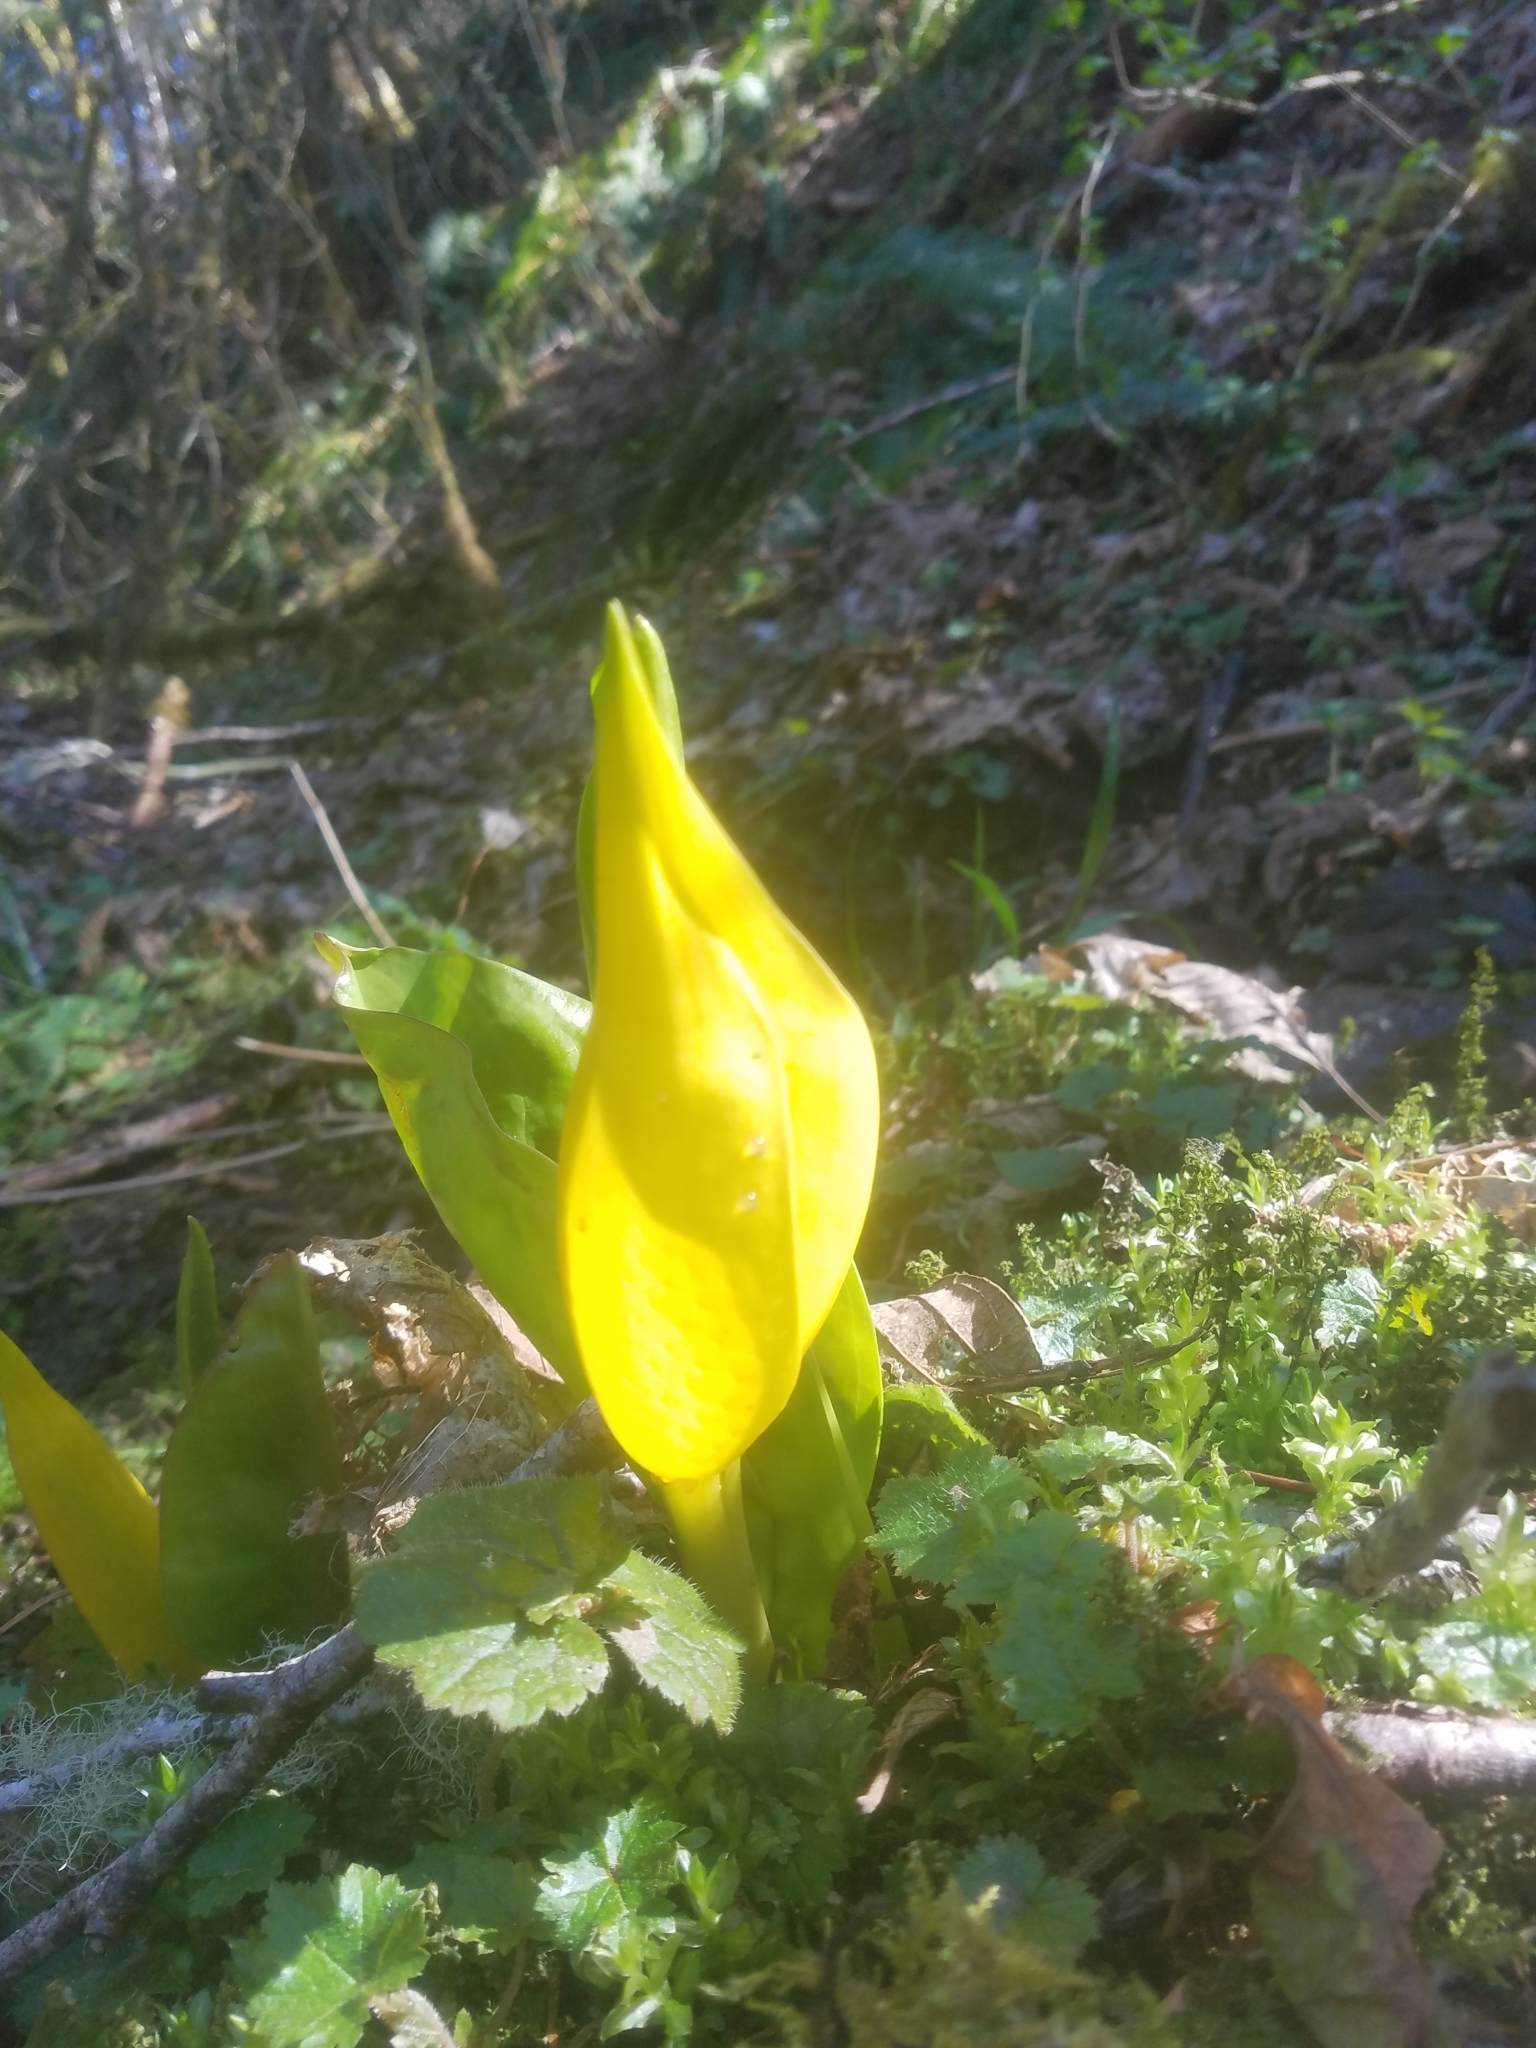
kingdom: Plantae
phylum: Tracheophyta
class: Liliopsida
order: Alismatales
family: Araceae
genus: Lysichiton
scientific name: Lysichiton americanus
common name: American skunk cabbage
